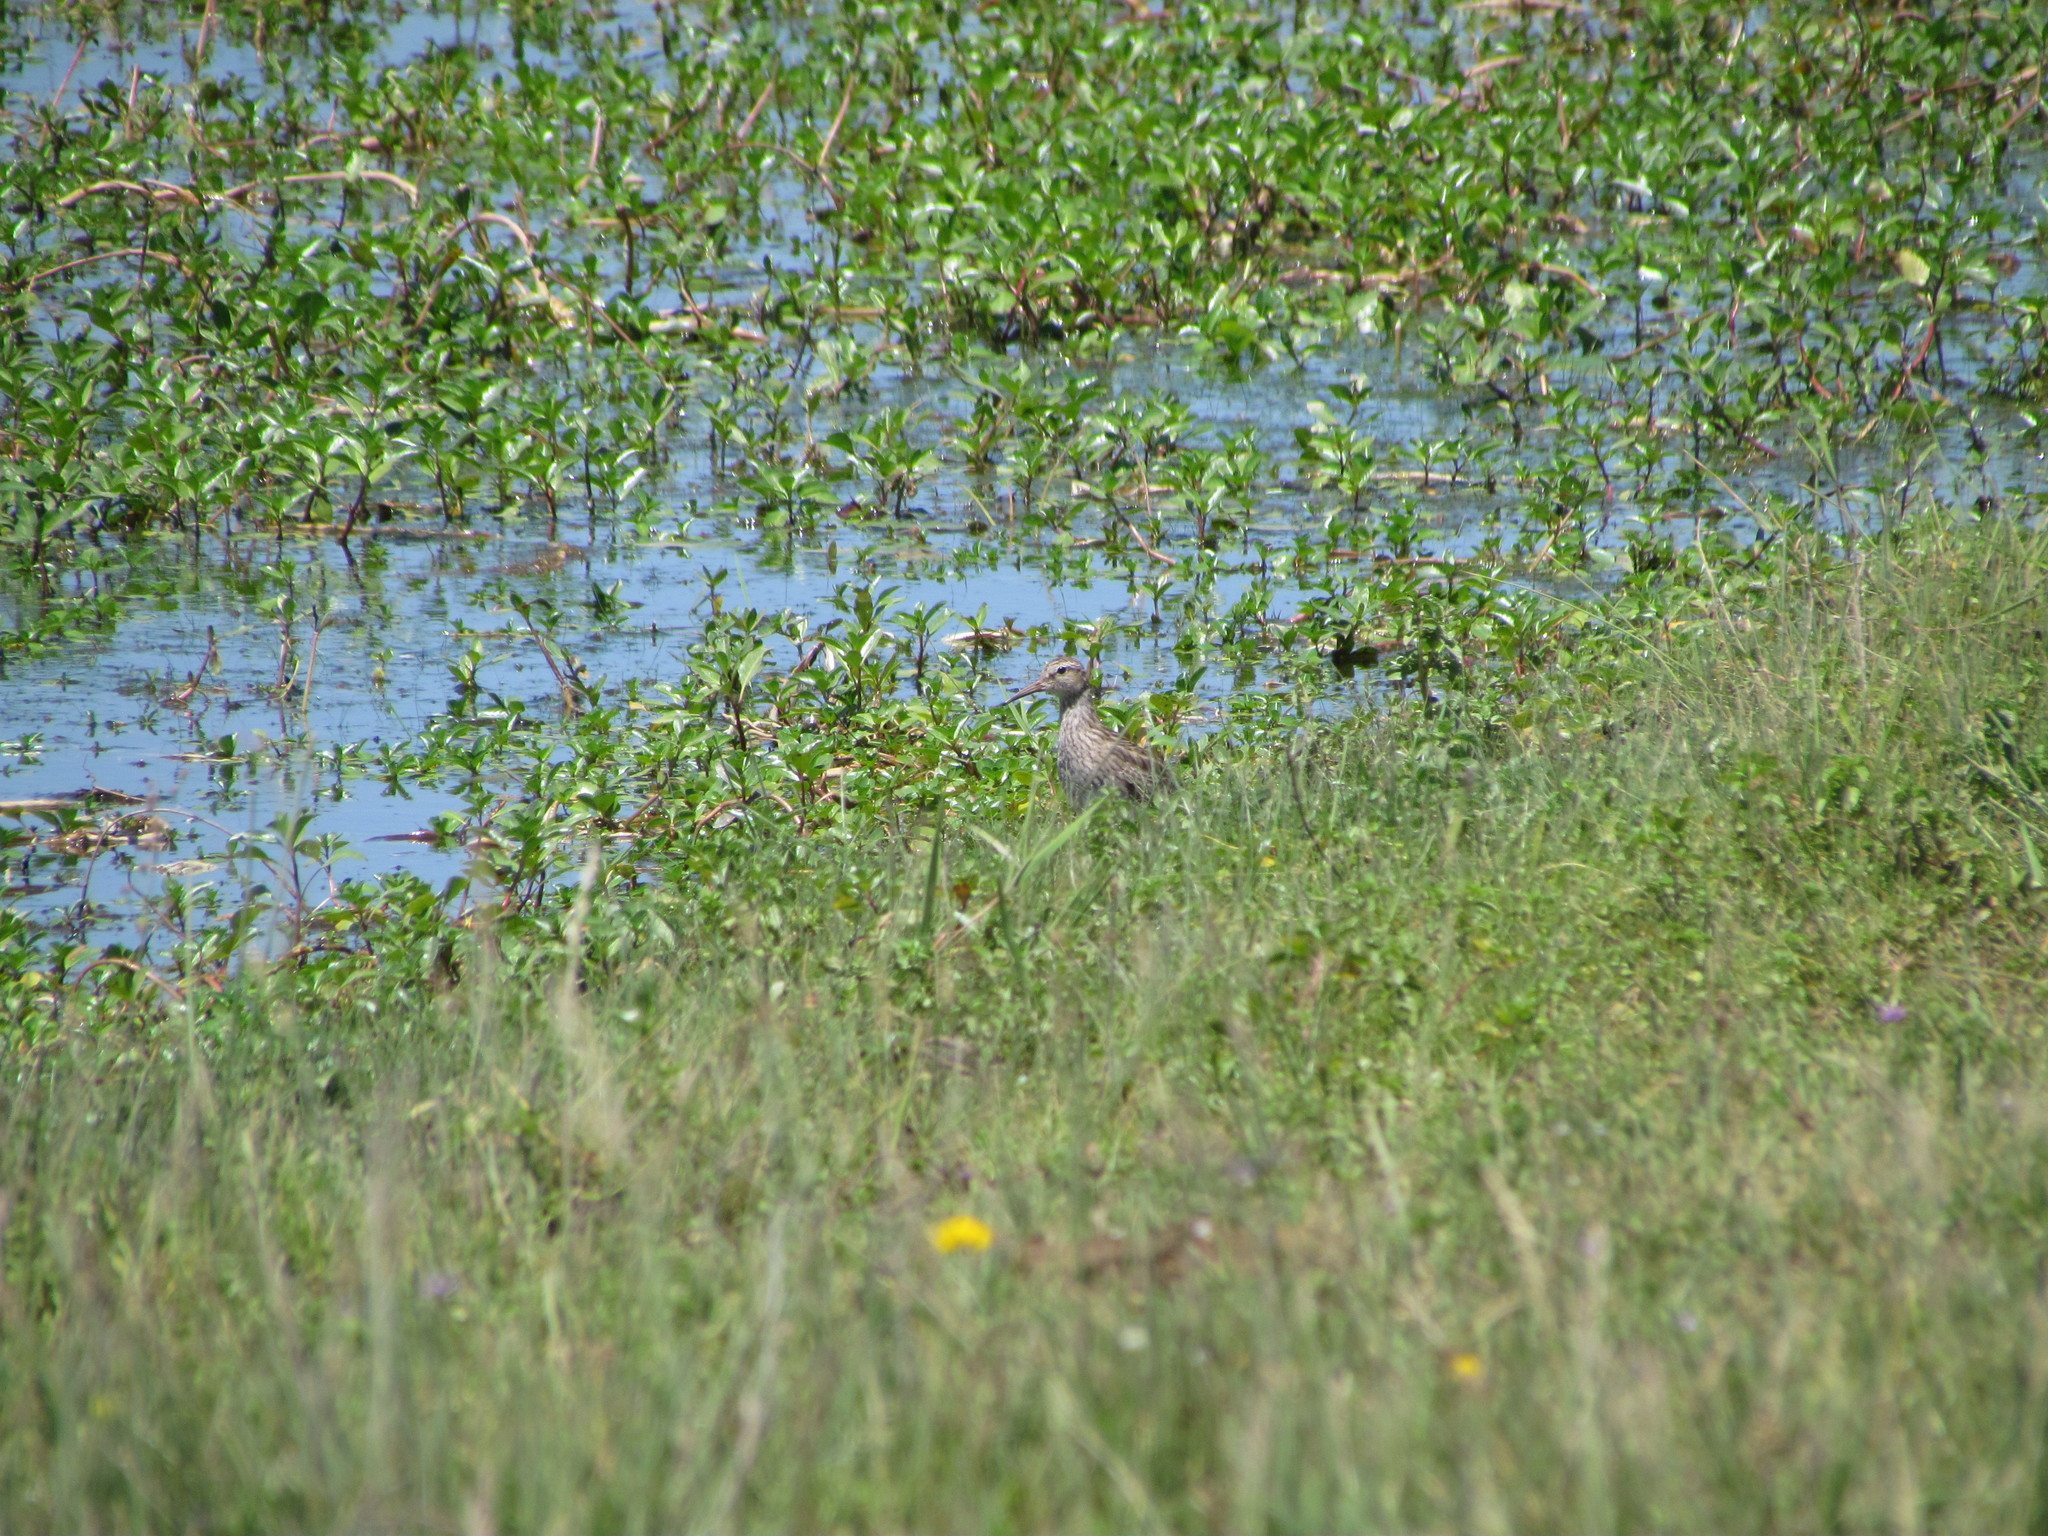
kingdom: Animalia
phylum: Chordata
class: Aves
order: Charadriiformes
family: Scolopacidae
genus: Calidris
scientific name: Calidris melanotos
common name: Pectoral sandpiper
